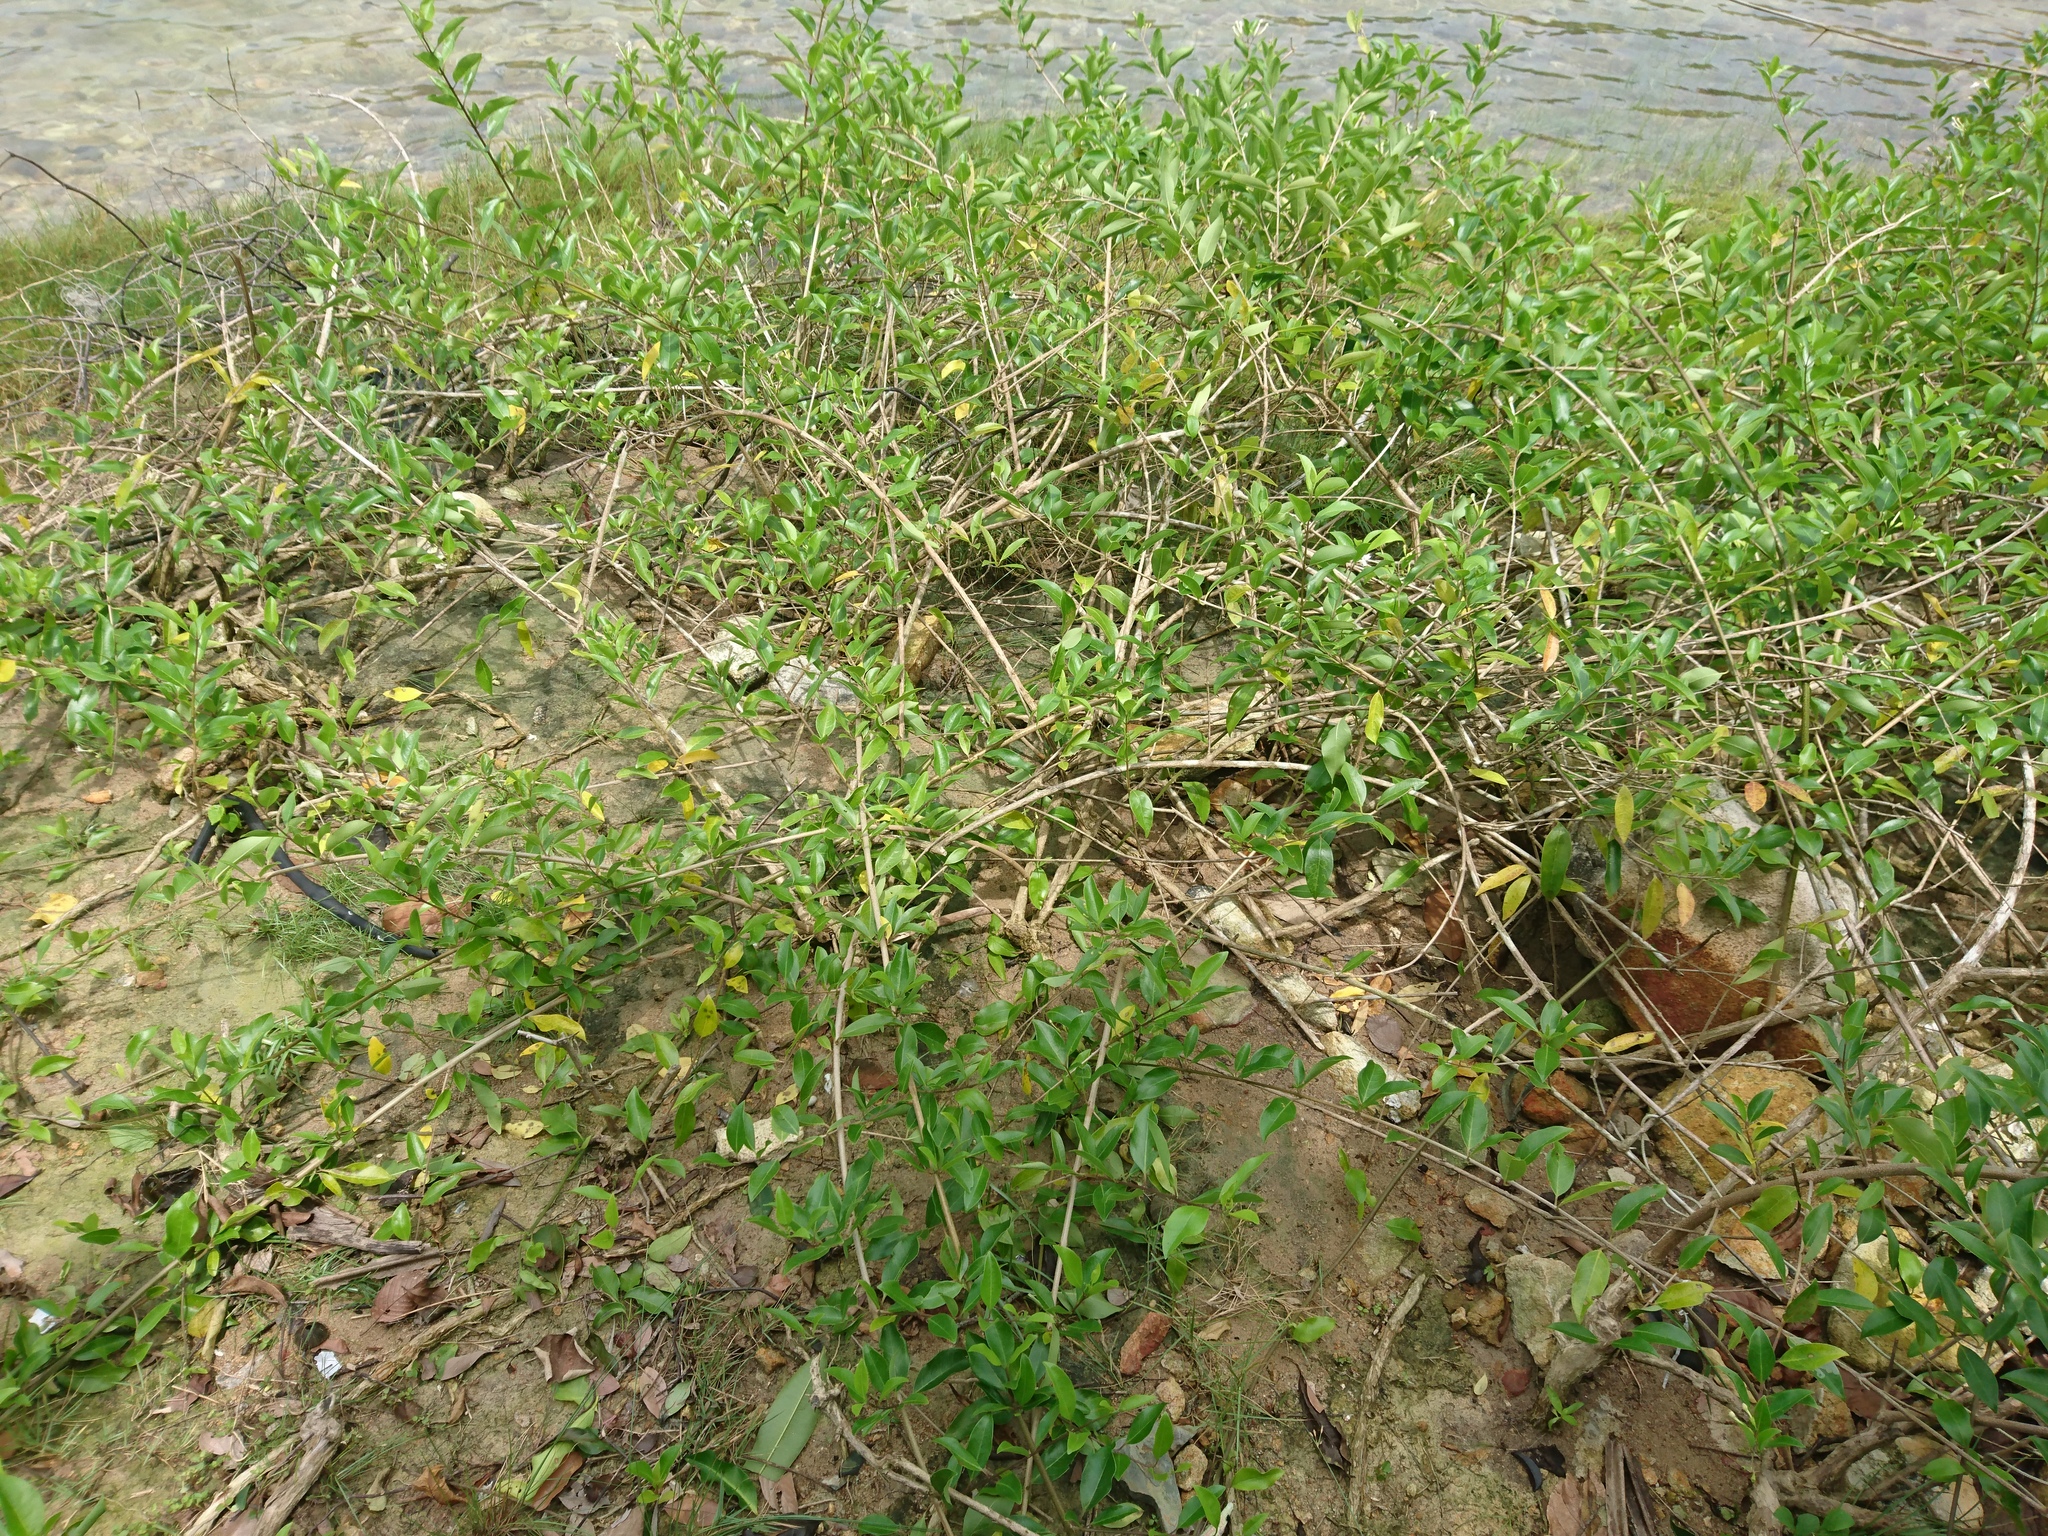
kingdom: Plantae
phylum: Tracheophyta
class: Magnoliopsida
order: Lamiales
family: Lamiaceae
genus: Volkameria
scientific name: Volkameria inermis
